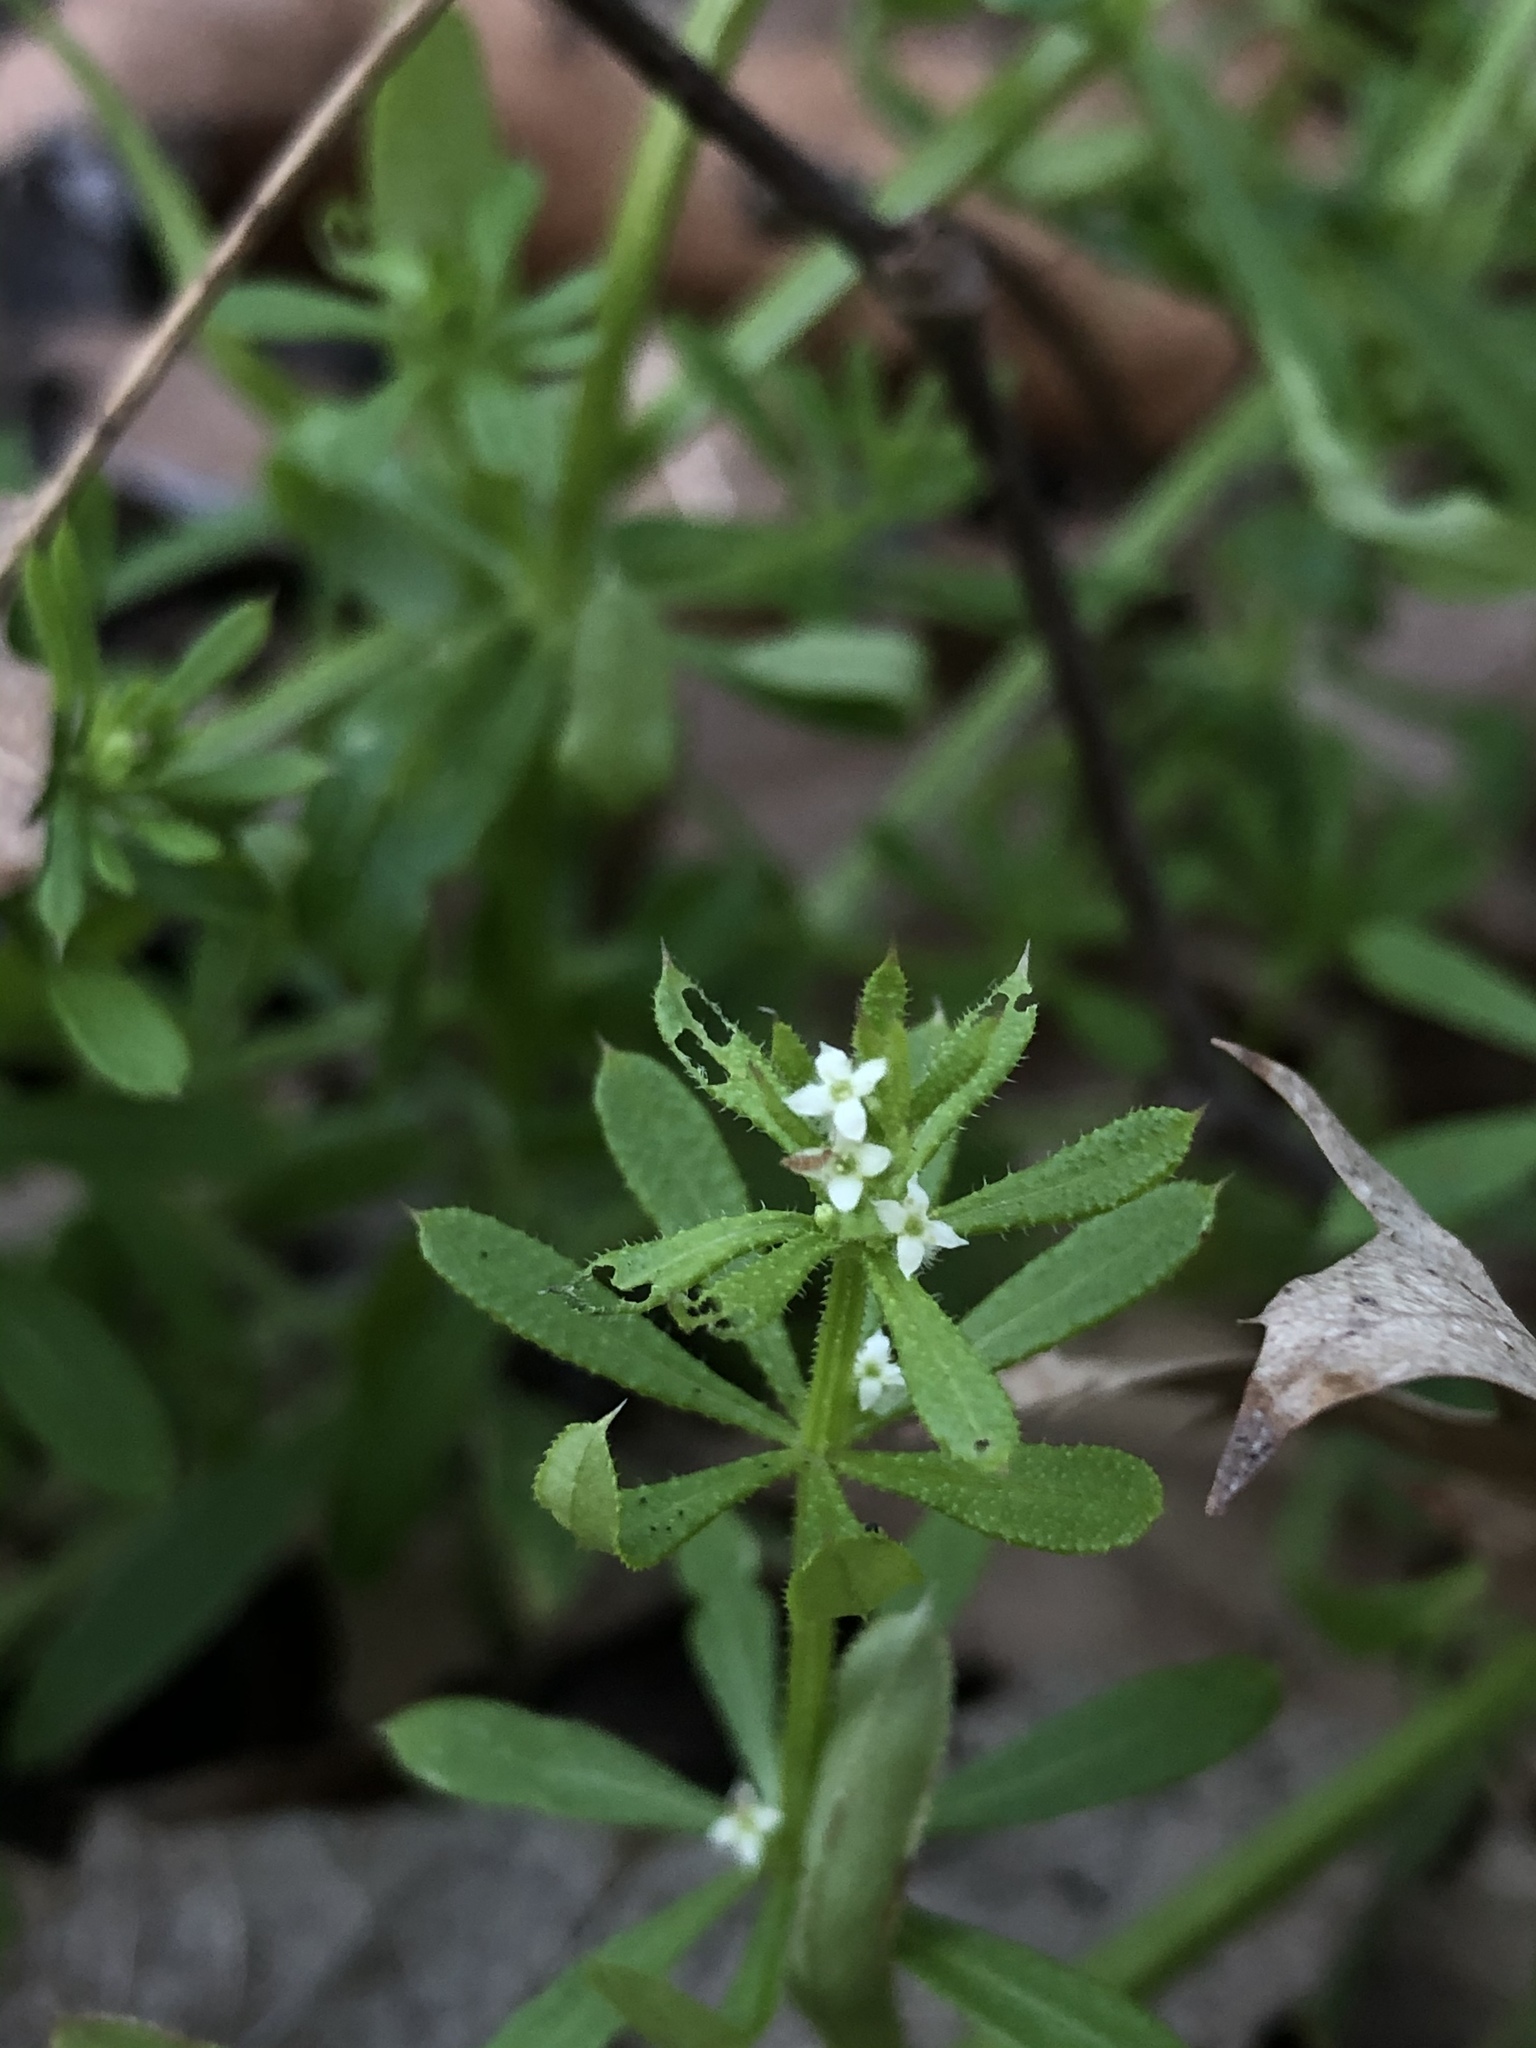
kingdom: Plantae
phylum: Tracheophyta
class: Magnoliopsida
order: Gentianales
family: Rubiaceae
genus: Galium
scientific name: Galium aparine
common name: Cleavers
